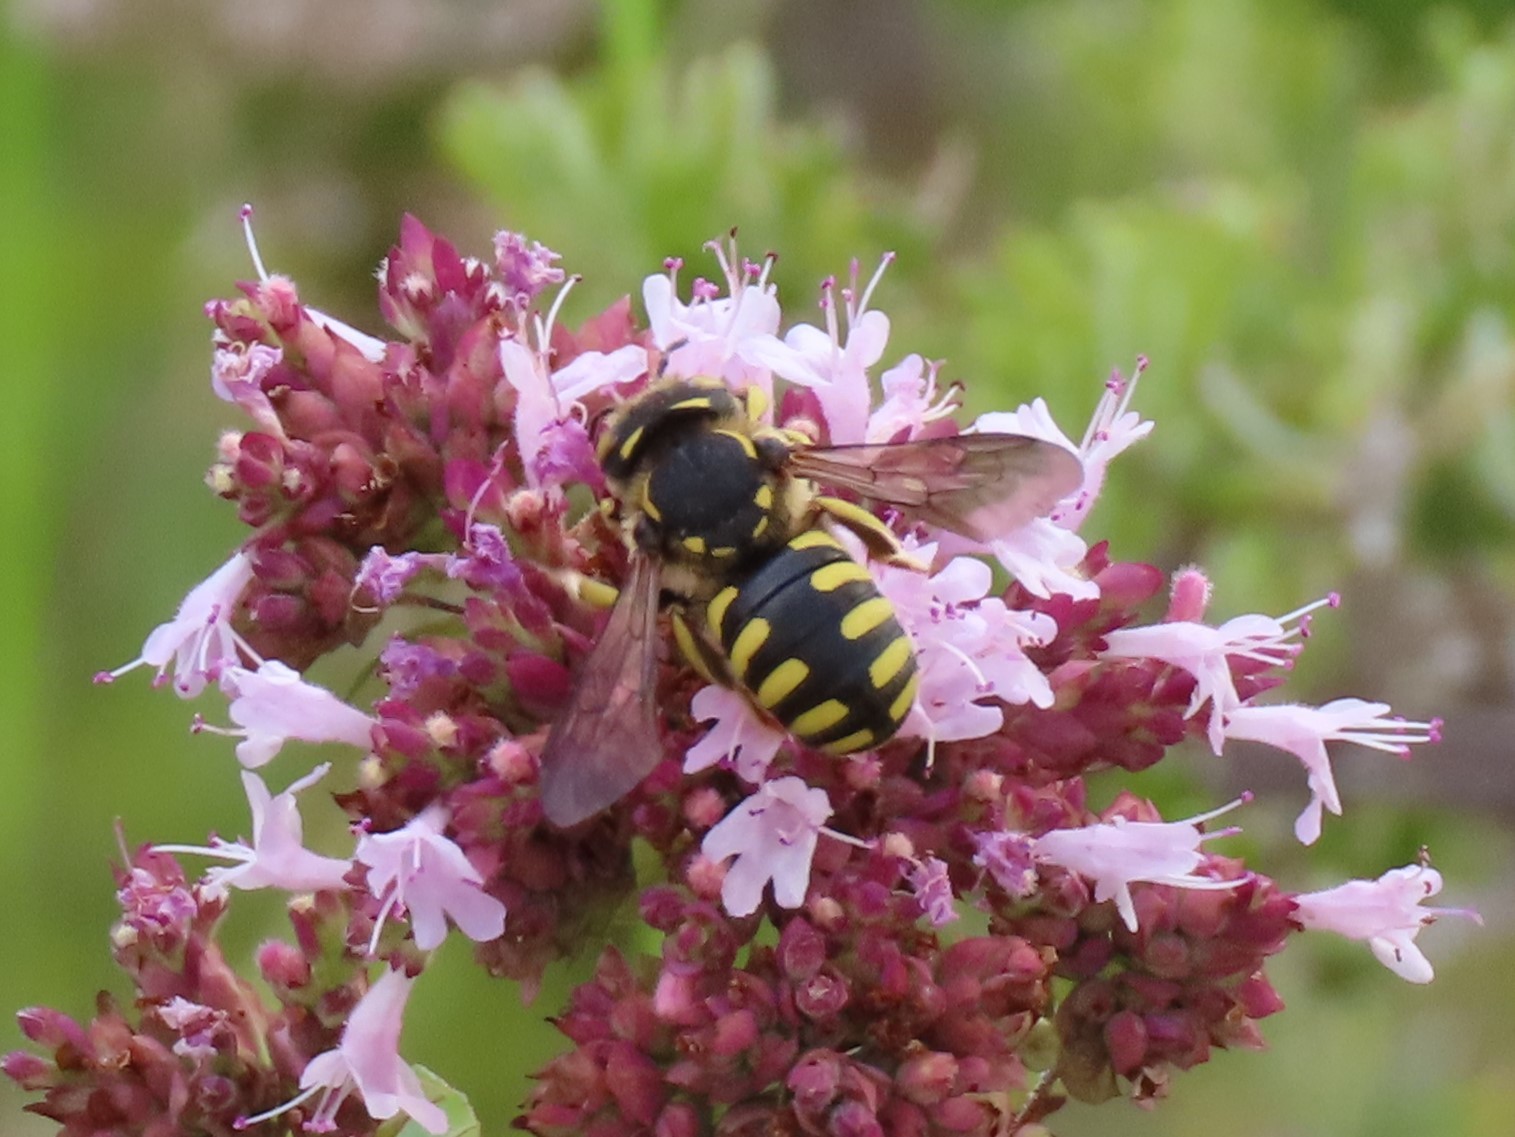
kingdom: Animalia
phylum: Arthropoda
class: Insecta
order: Hymenoptera
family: Megachilidae
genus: Anthidium
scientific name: Anthidium florentinum
